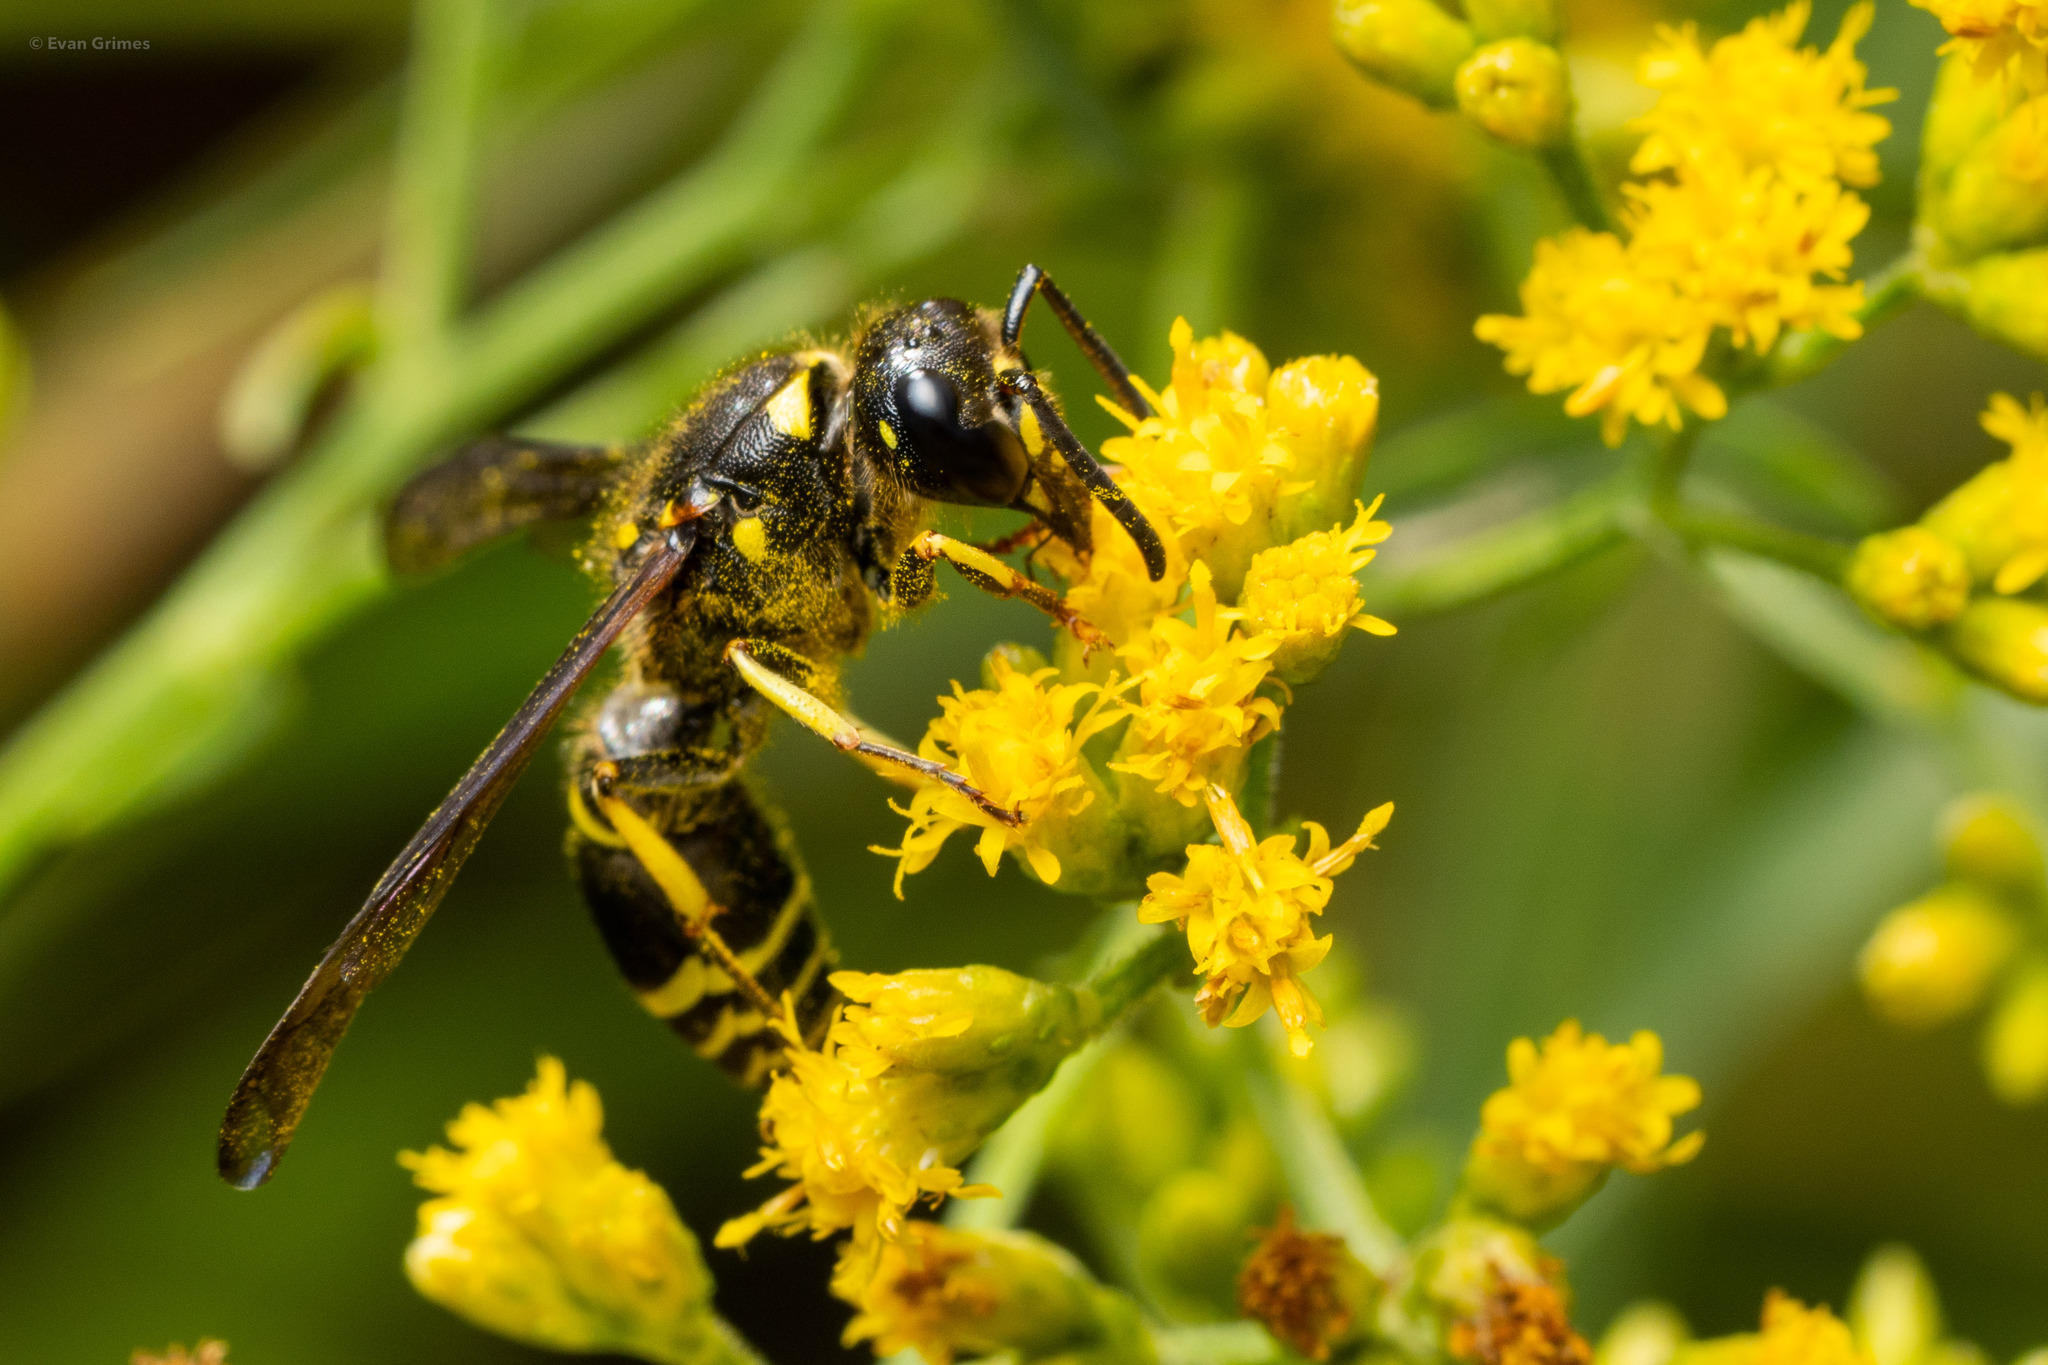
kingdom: Animalia
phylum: Arthropoda
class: Insecta
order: Hymenoptera
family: Vespidae
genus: Ancistrocerus
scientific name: Ancistrocerus
